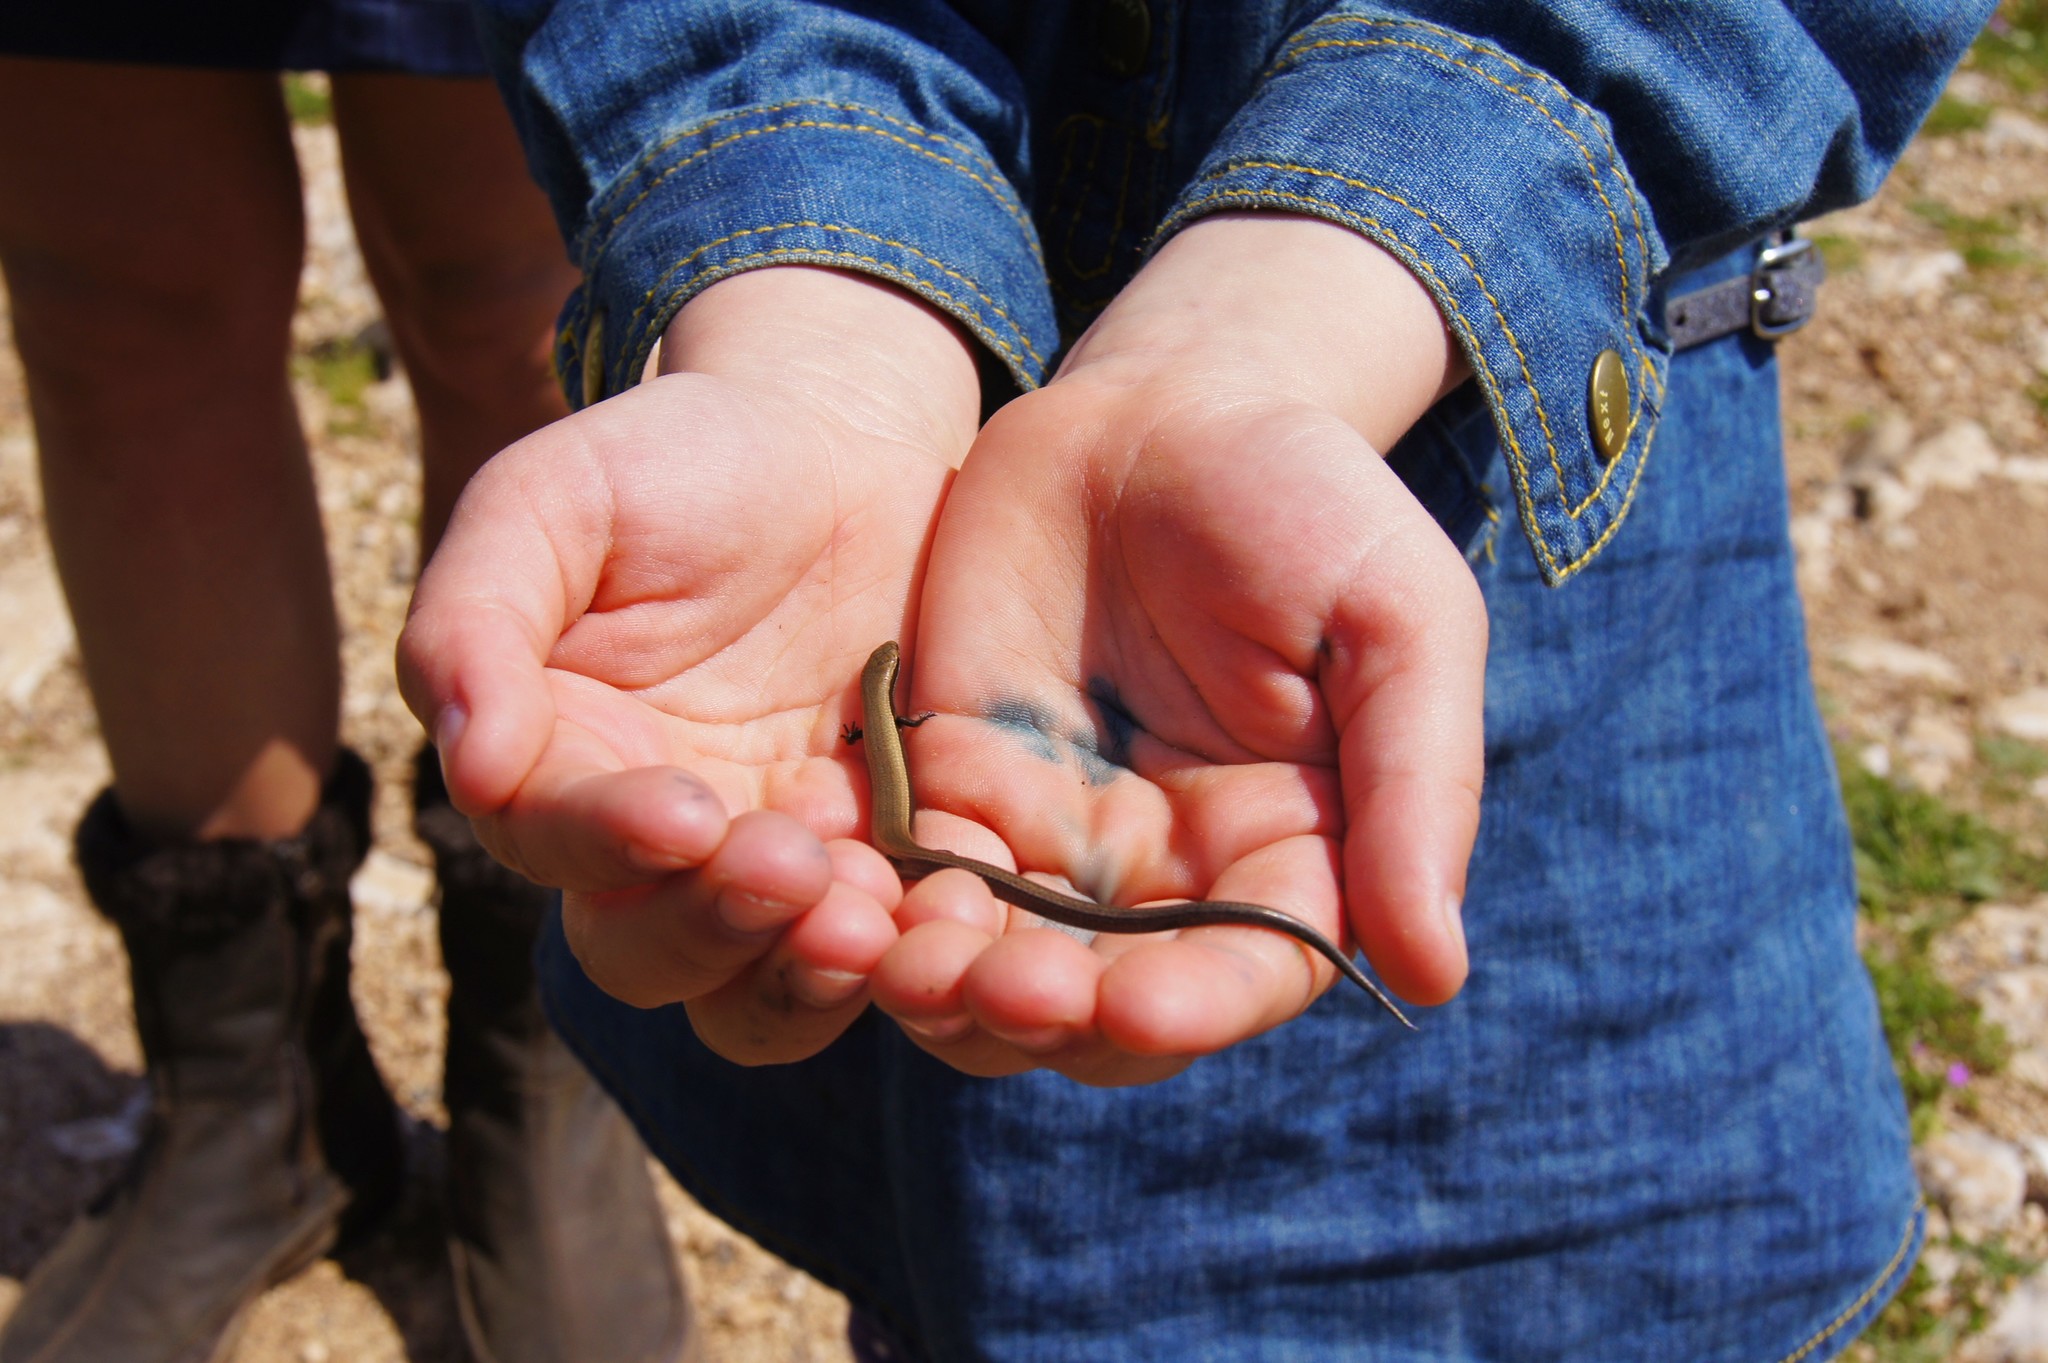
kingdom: Animalia
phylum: Chordata
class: Squamata
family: Scincidae
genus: Ablepharus
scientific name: Ablepharus kitaibelii
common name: Juniper skink
